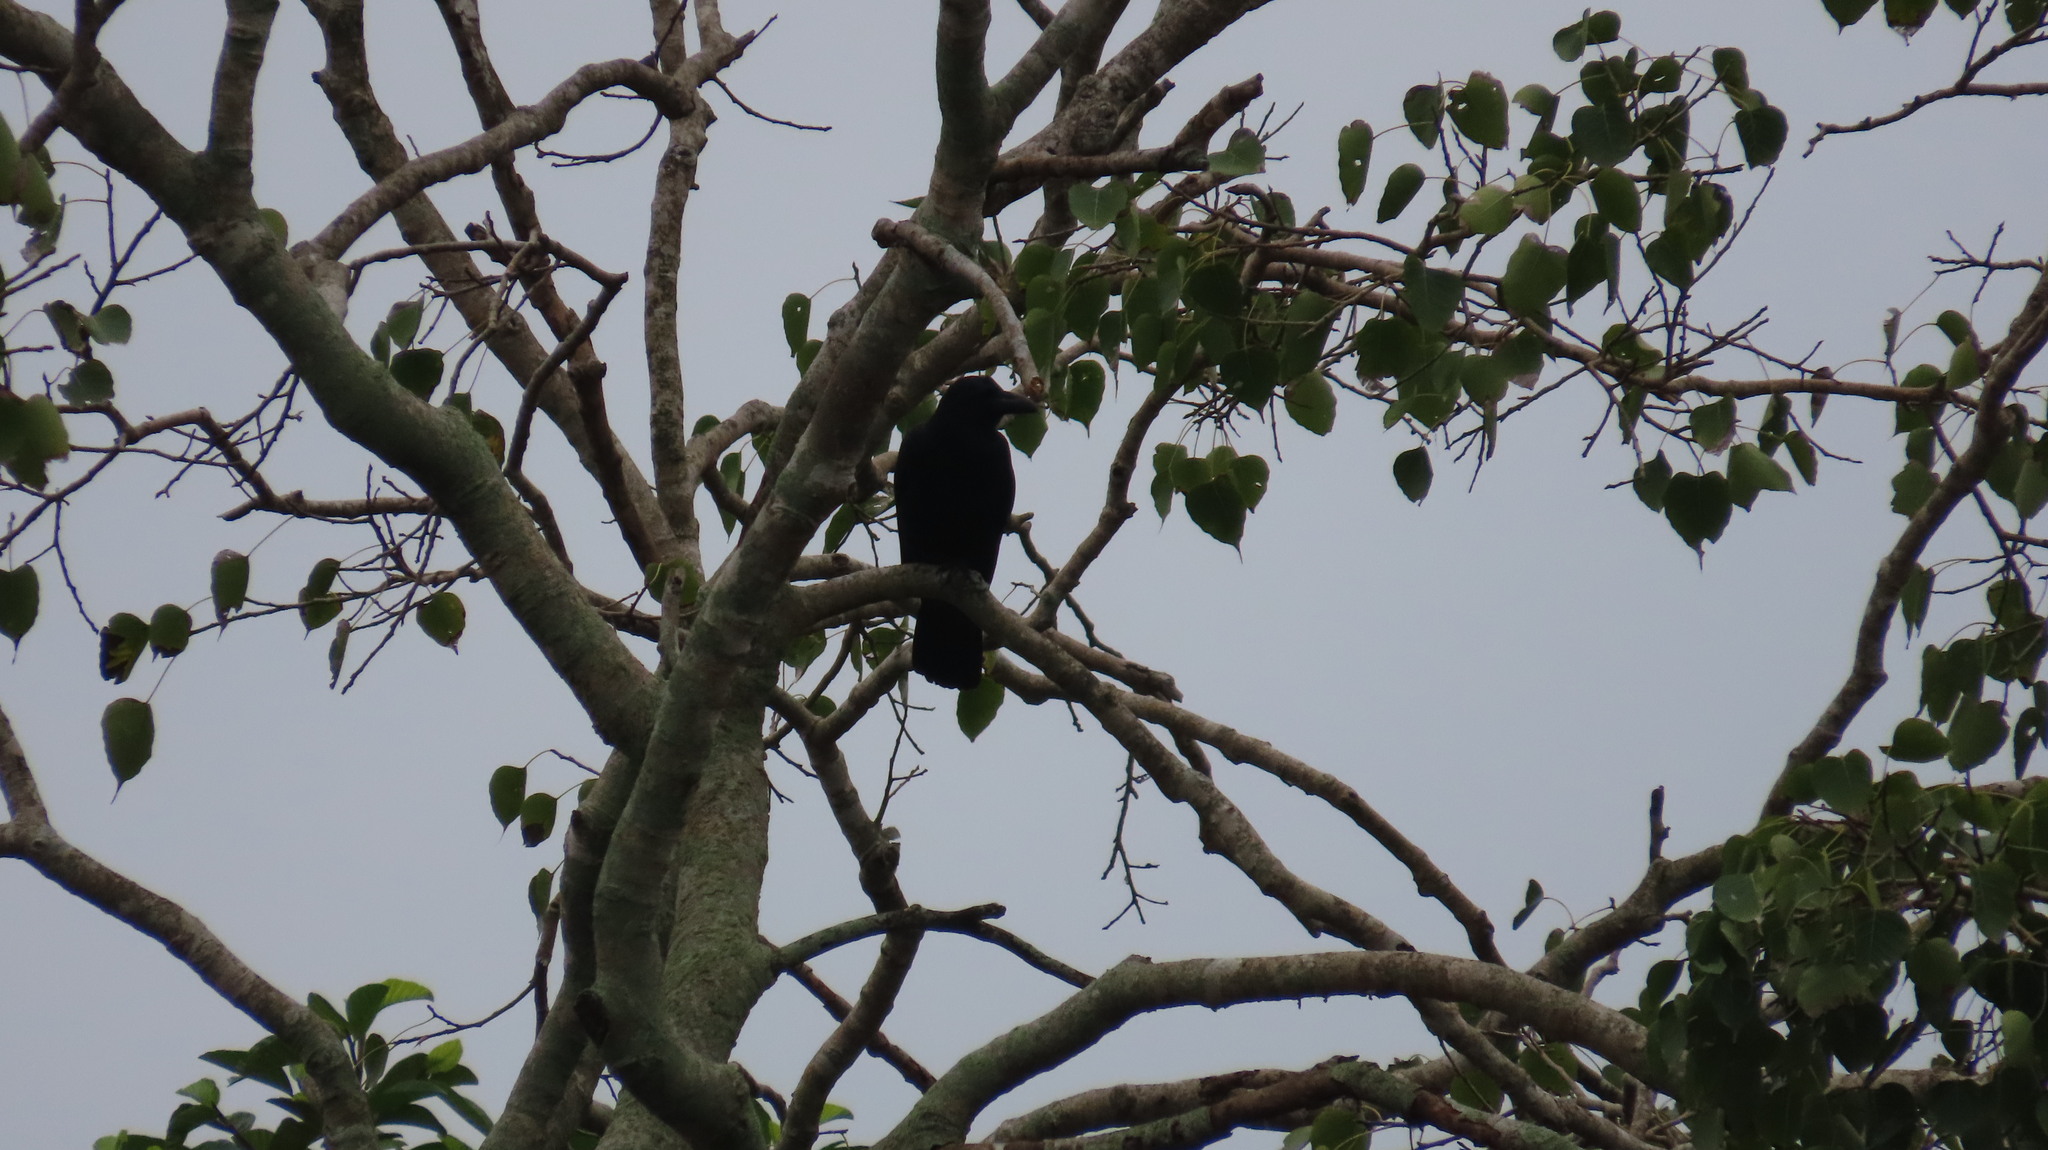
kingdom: Animalia
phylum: Chordata
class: Aves
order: Passeriformes
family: Corvidae
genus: Corvus
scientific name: Corvus macrorhynchos
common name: Large-billed crow
